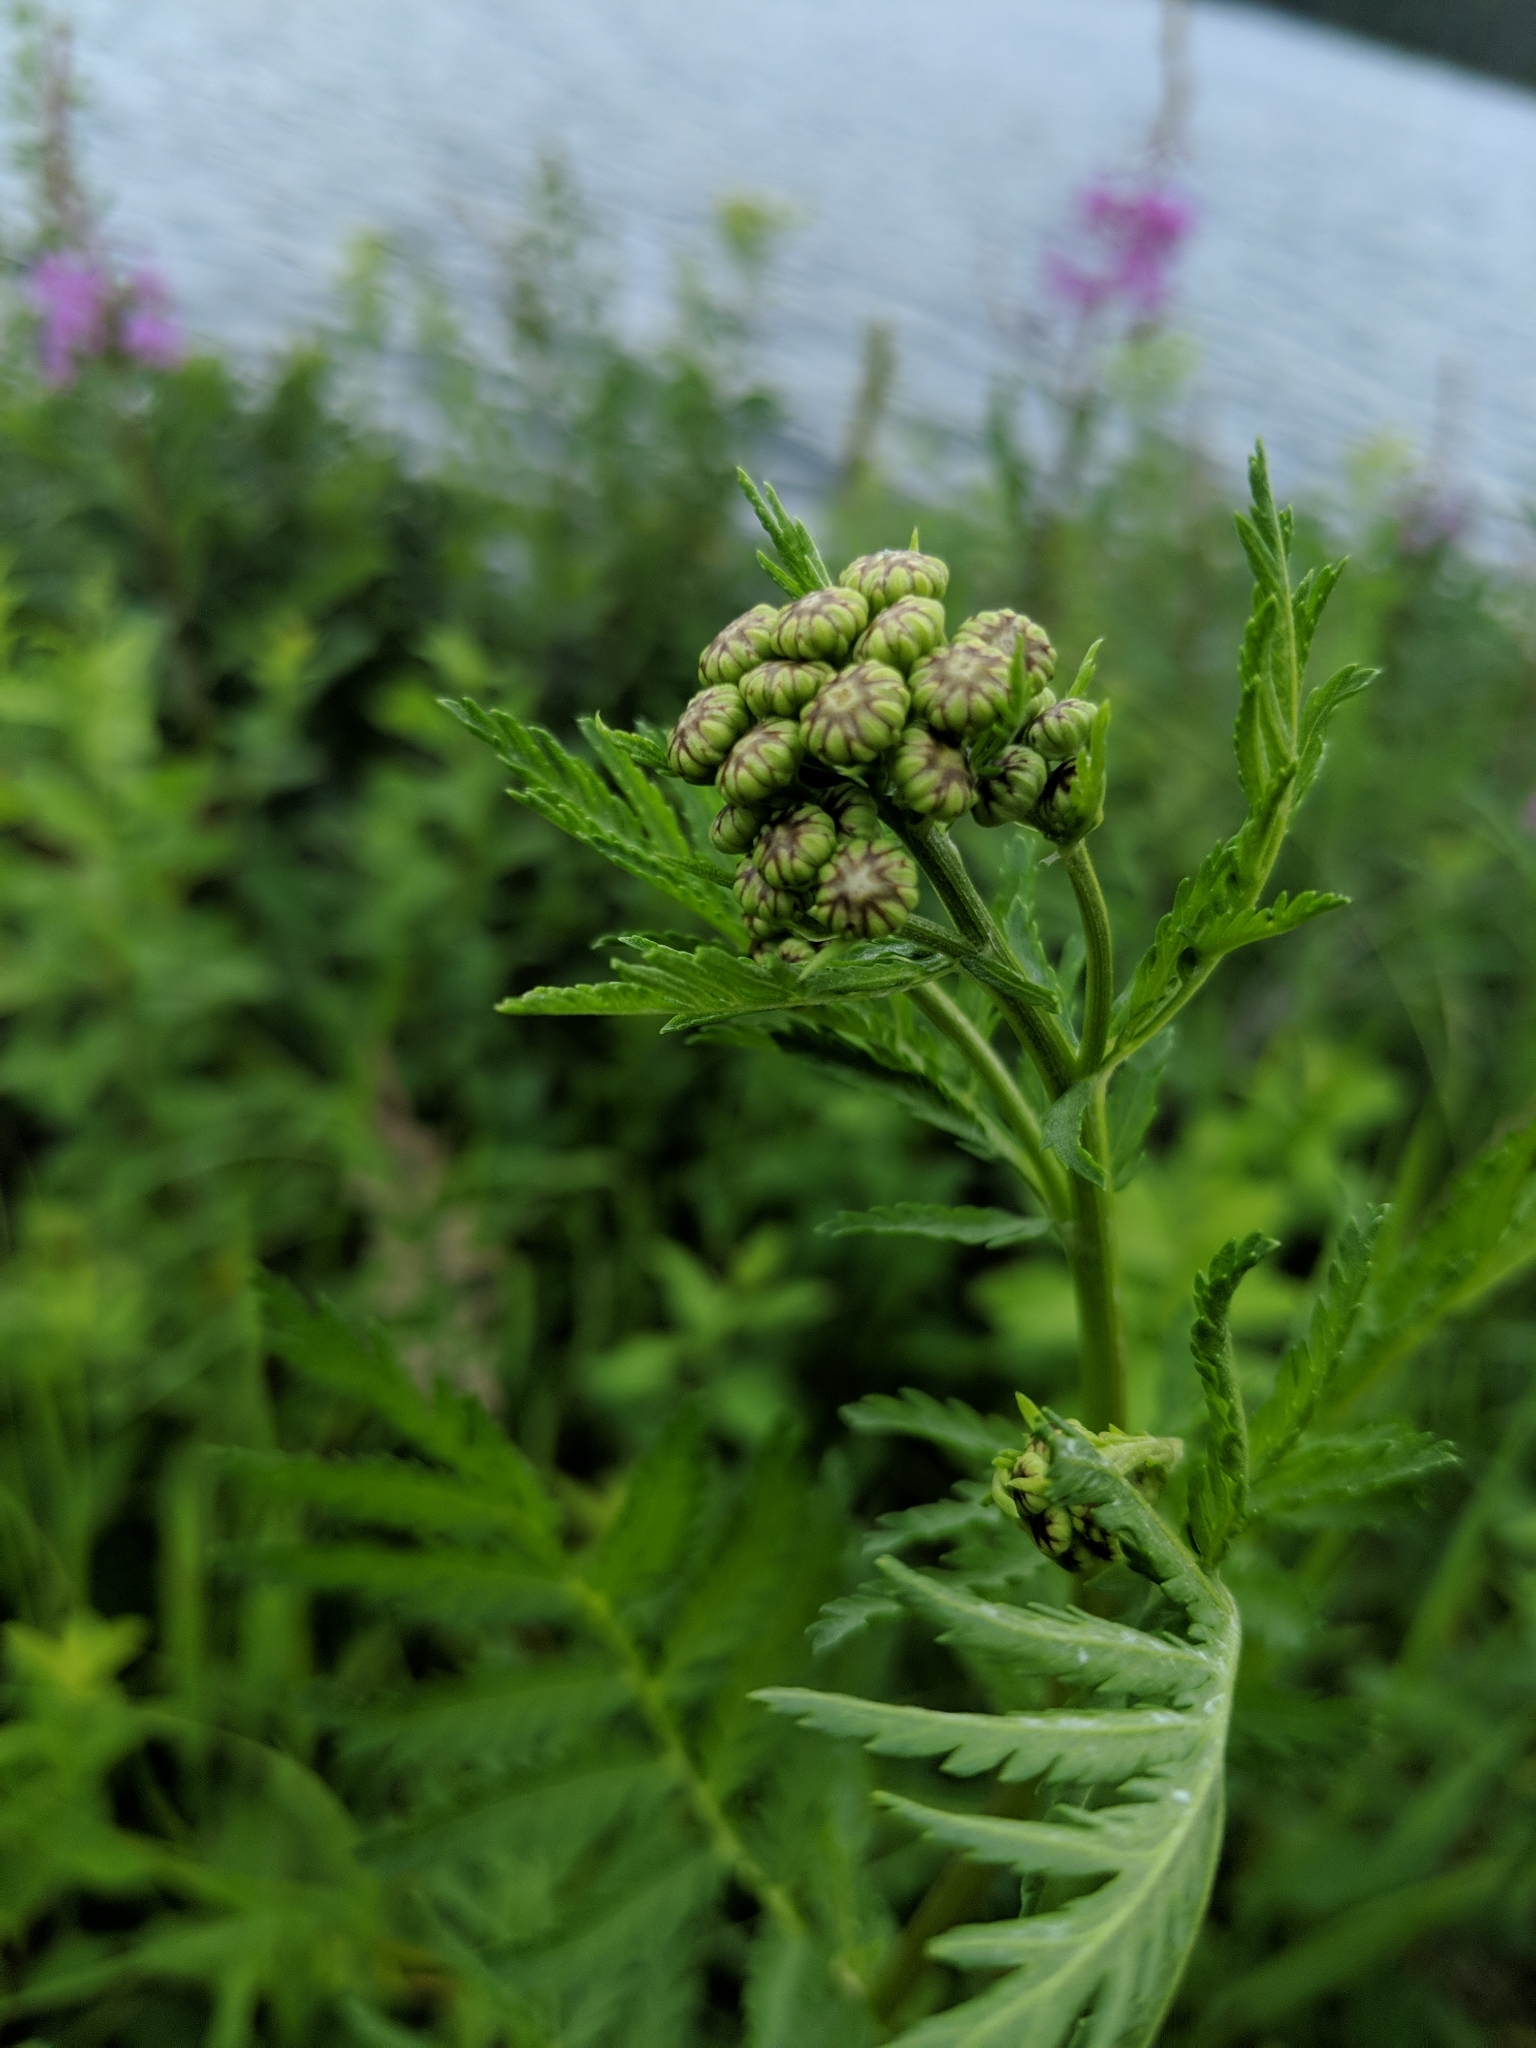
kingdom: Plantae
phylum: Tracheophyta
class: Magnoliopsida
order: Asterales
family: Asteraceae
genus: Tanacetum
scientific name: Tanacetum vulgare
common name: Common tansy
